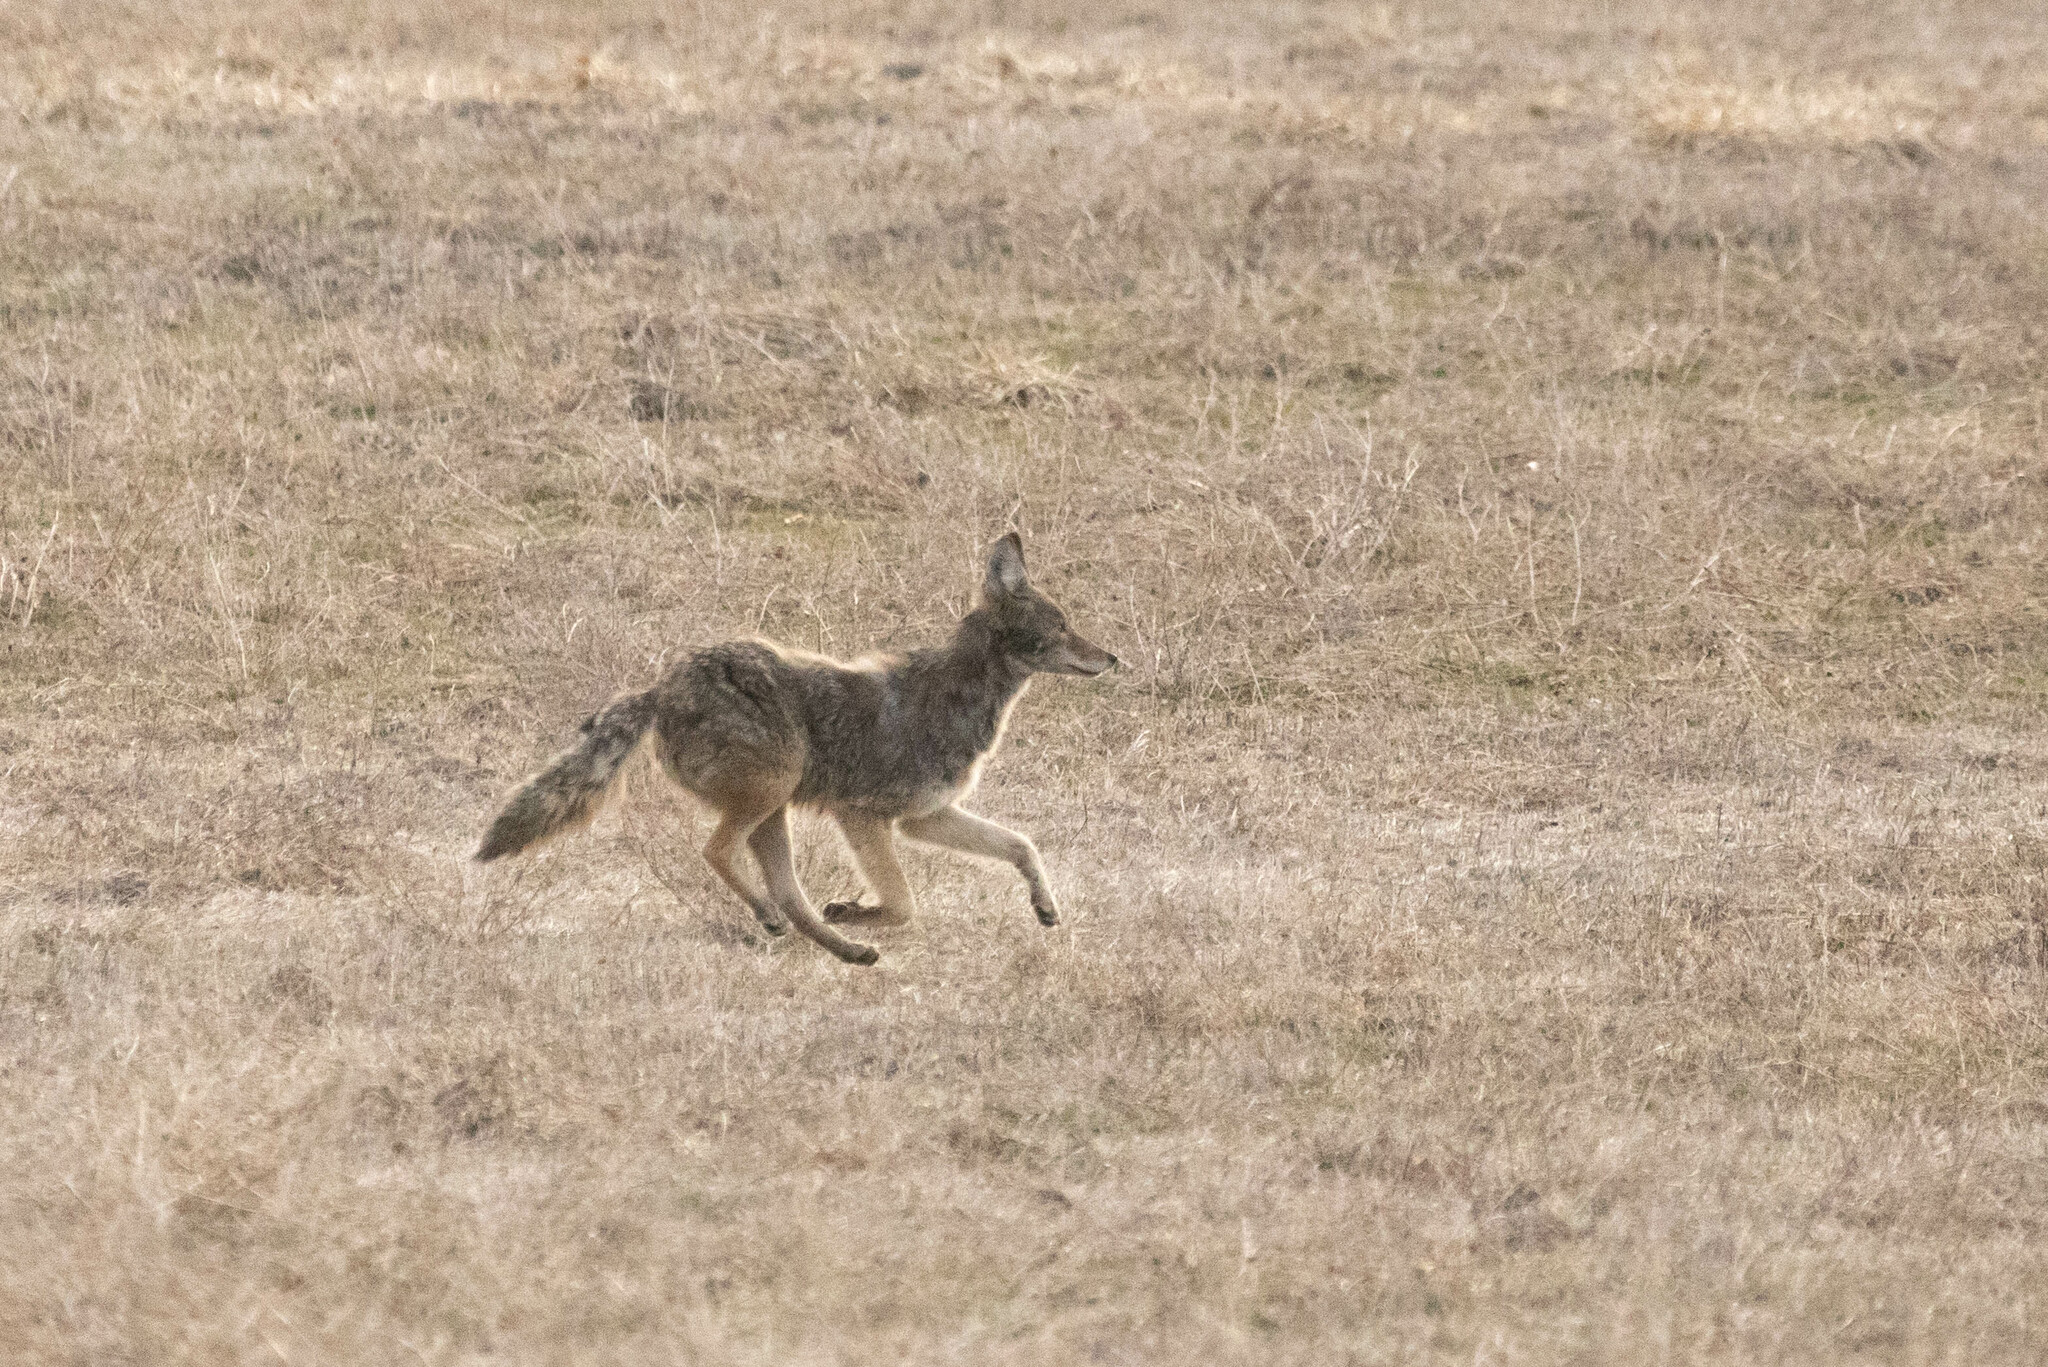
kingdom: Animalia
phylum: Chordata
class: Mammalia
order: Carnivora
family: Canidae
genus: Canis
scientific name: Canis latrans
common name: Coyote
